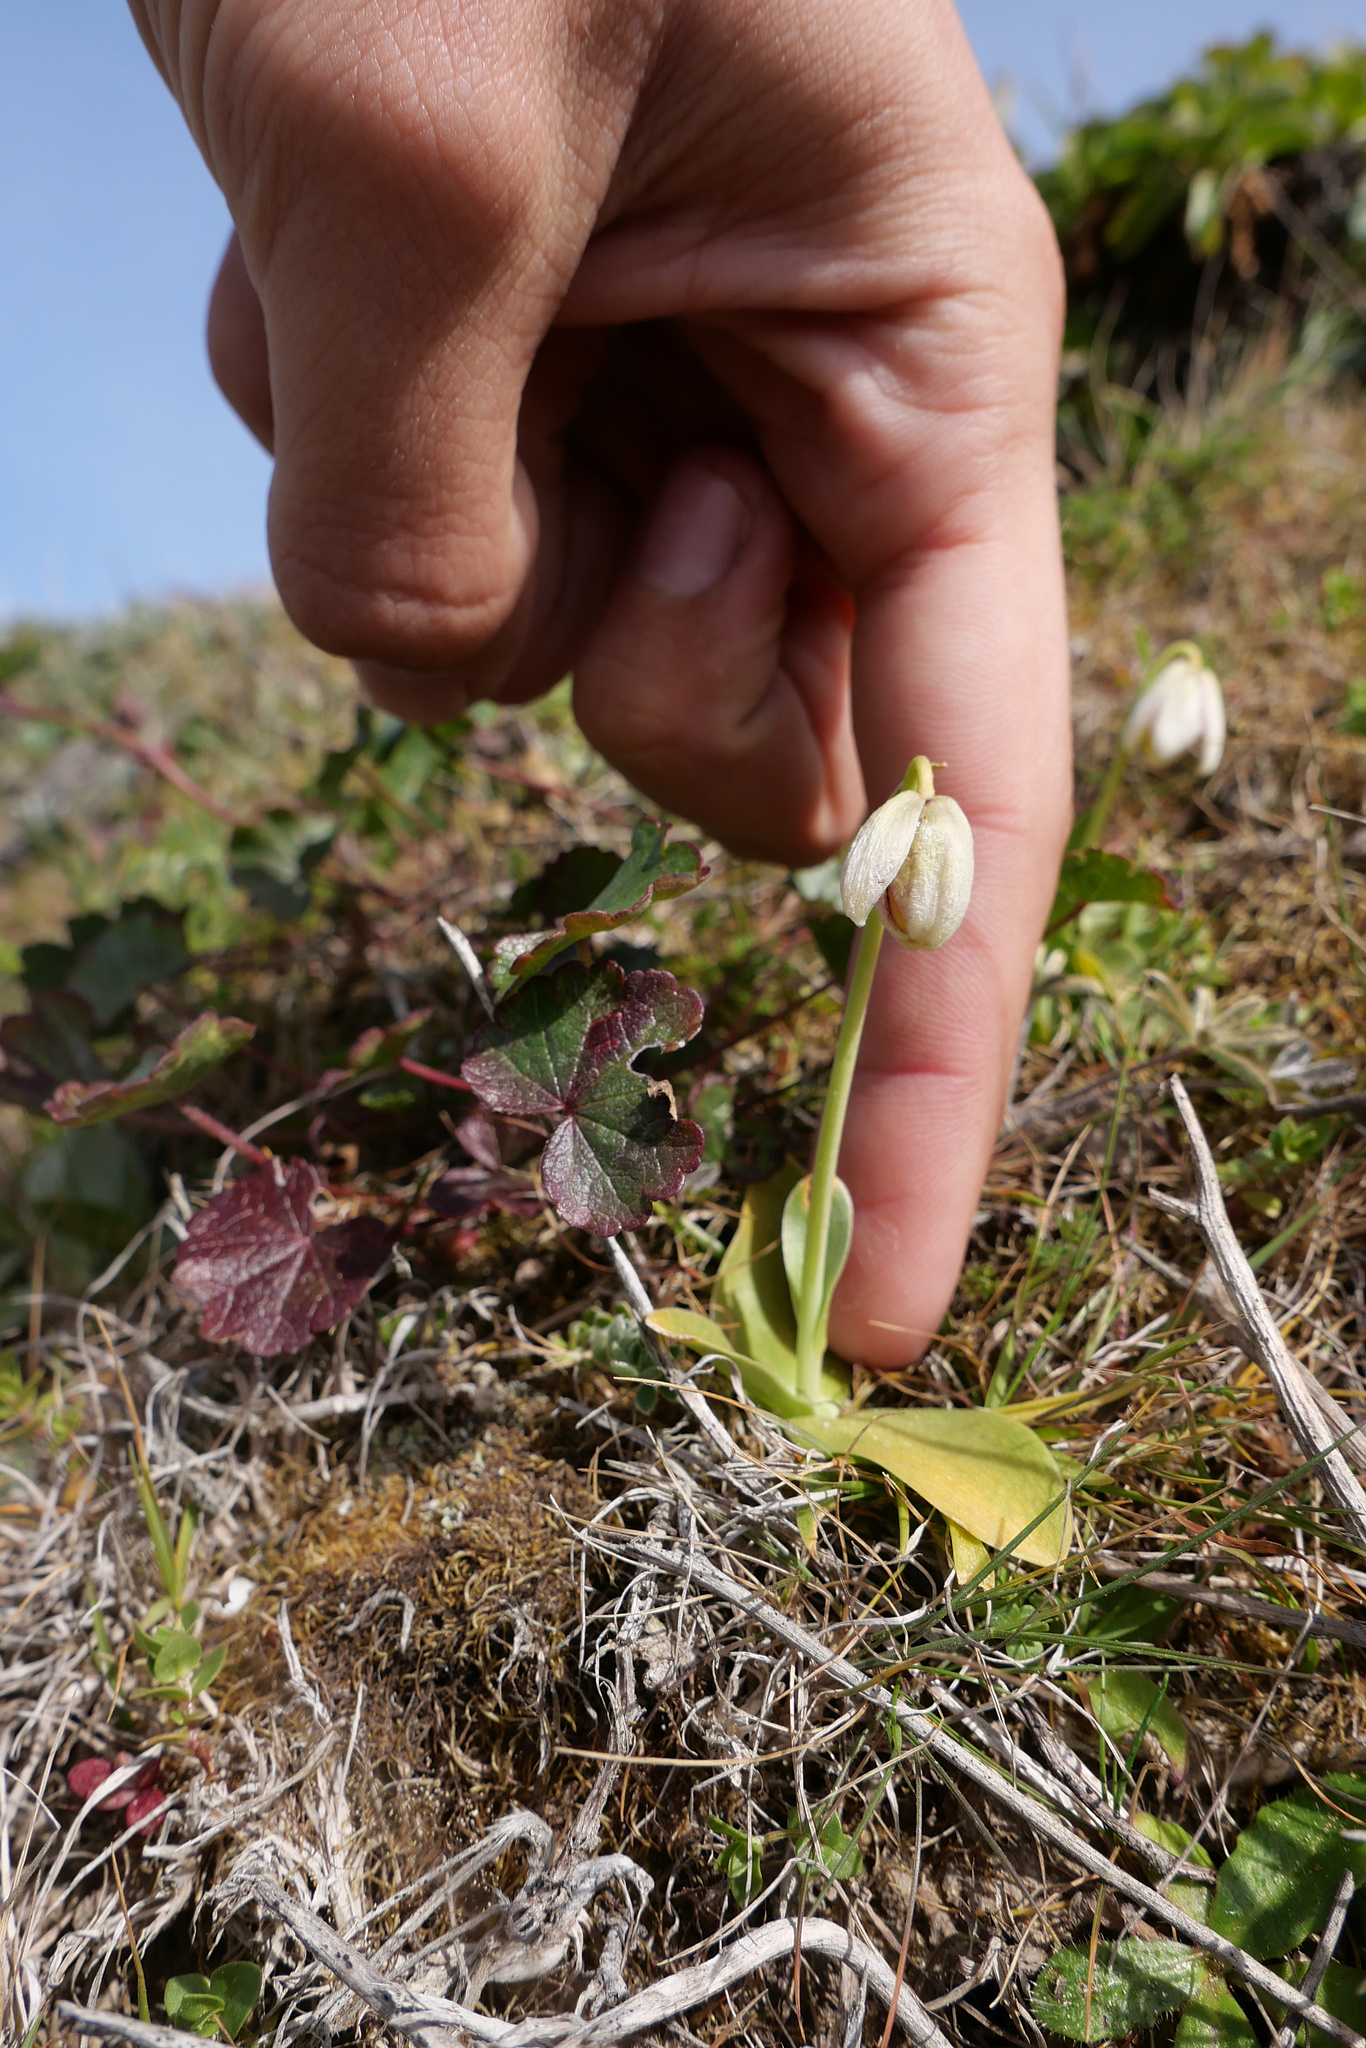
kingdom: Plantae
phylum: Tracheophyta
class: Liliopsida
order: Liliales
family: Liliaceae
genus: Fritillaria
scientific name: Fritillaria liliacea
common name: Fragrant fritillary
